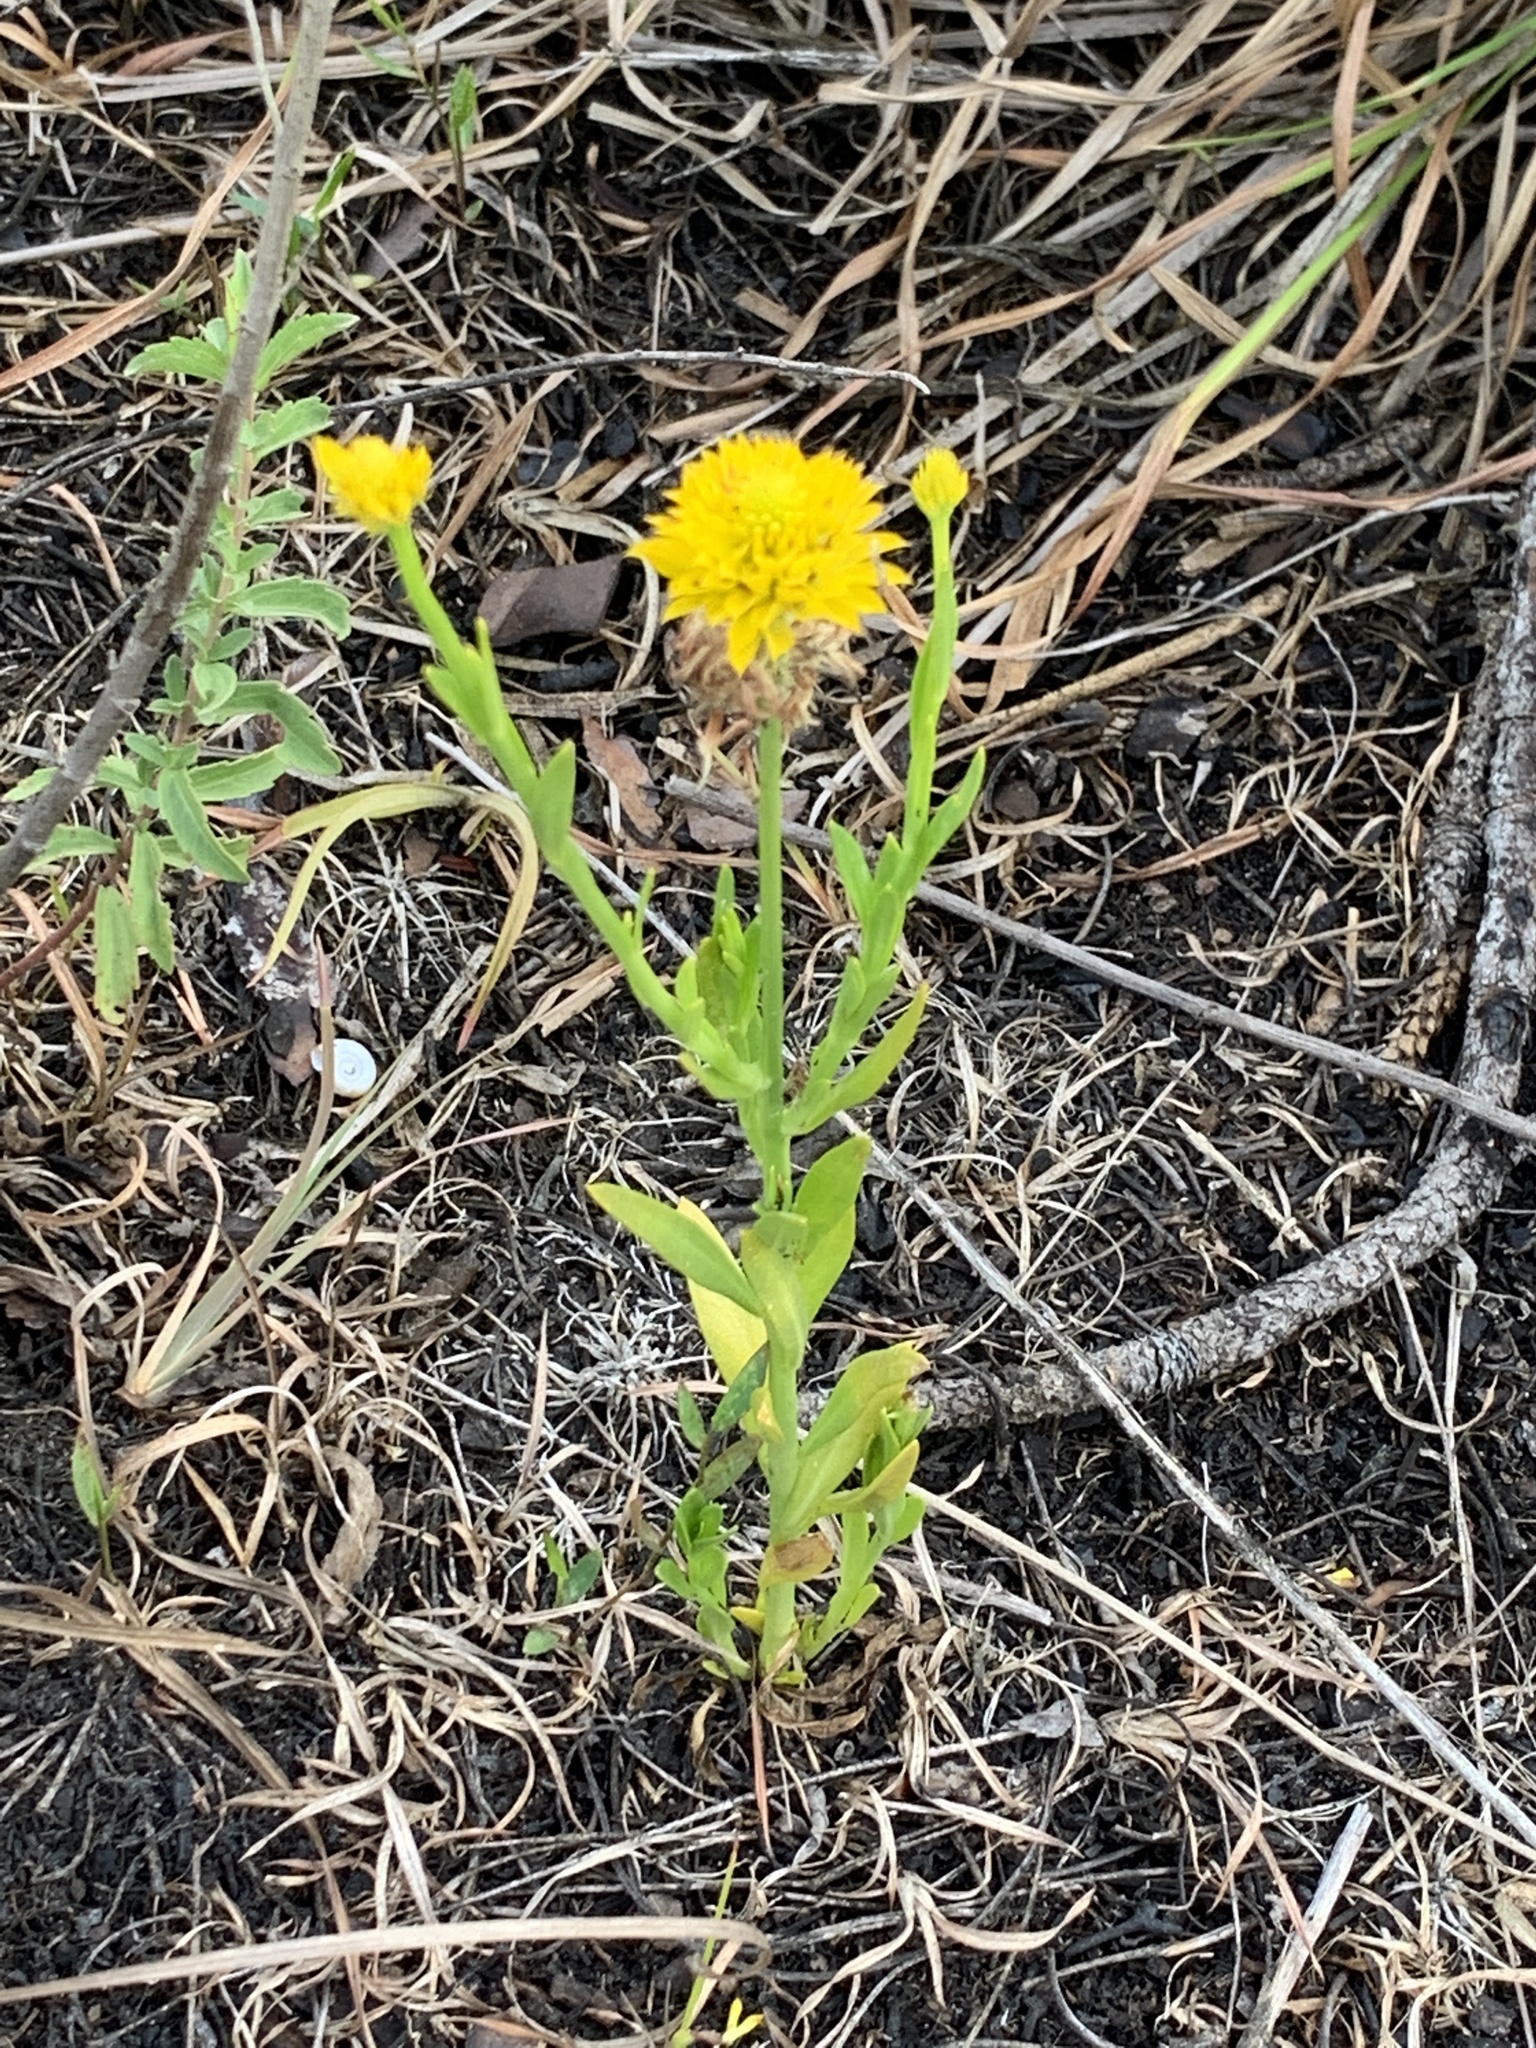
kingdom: Plantae
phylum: Tracheophyta
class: Magnoliopsida
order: Fabales
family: Polygalaceae
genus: Polygala
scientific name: Polygala rugelii
